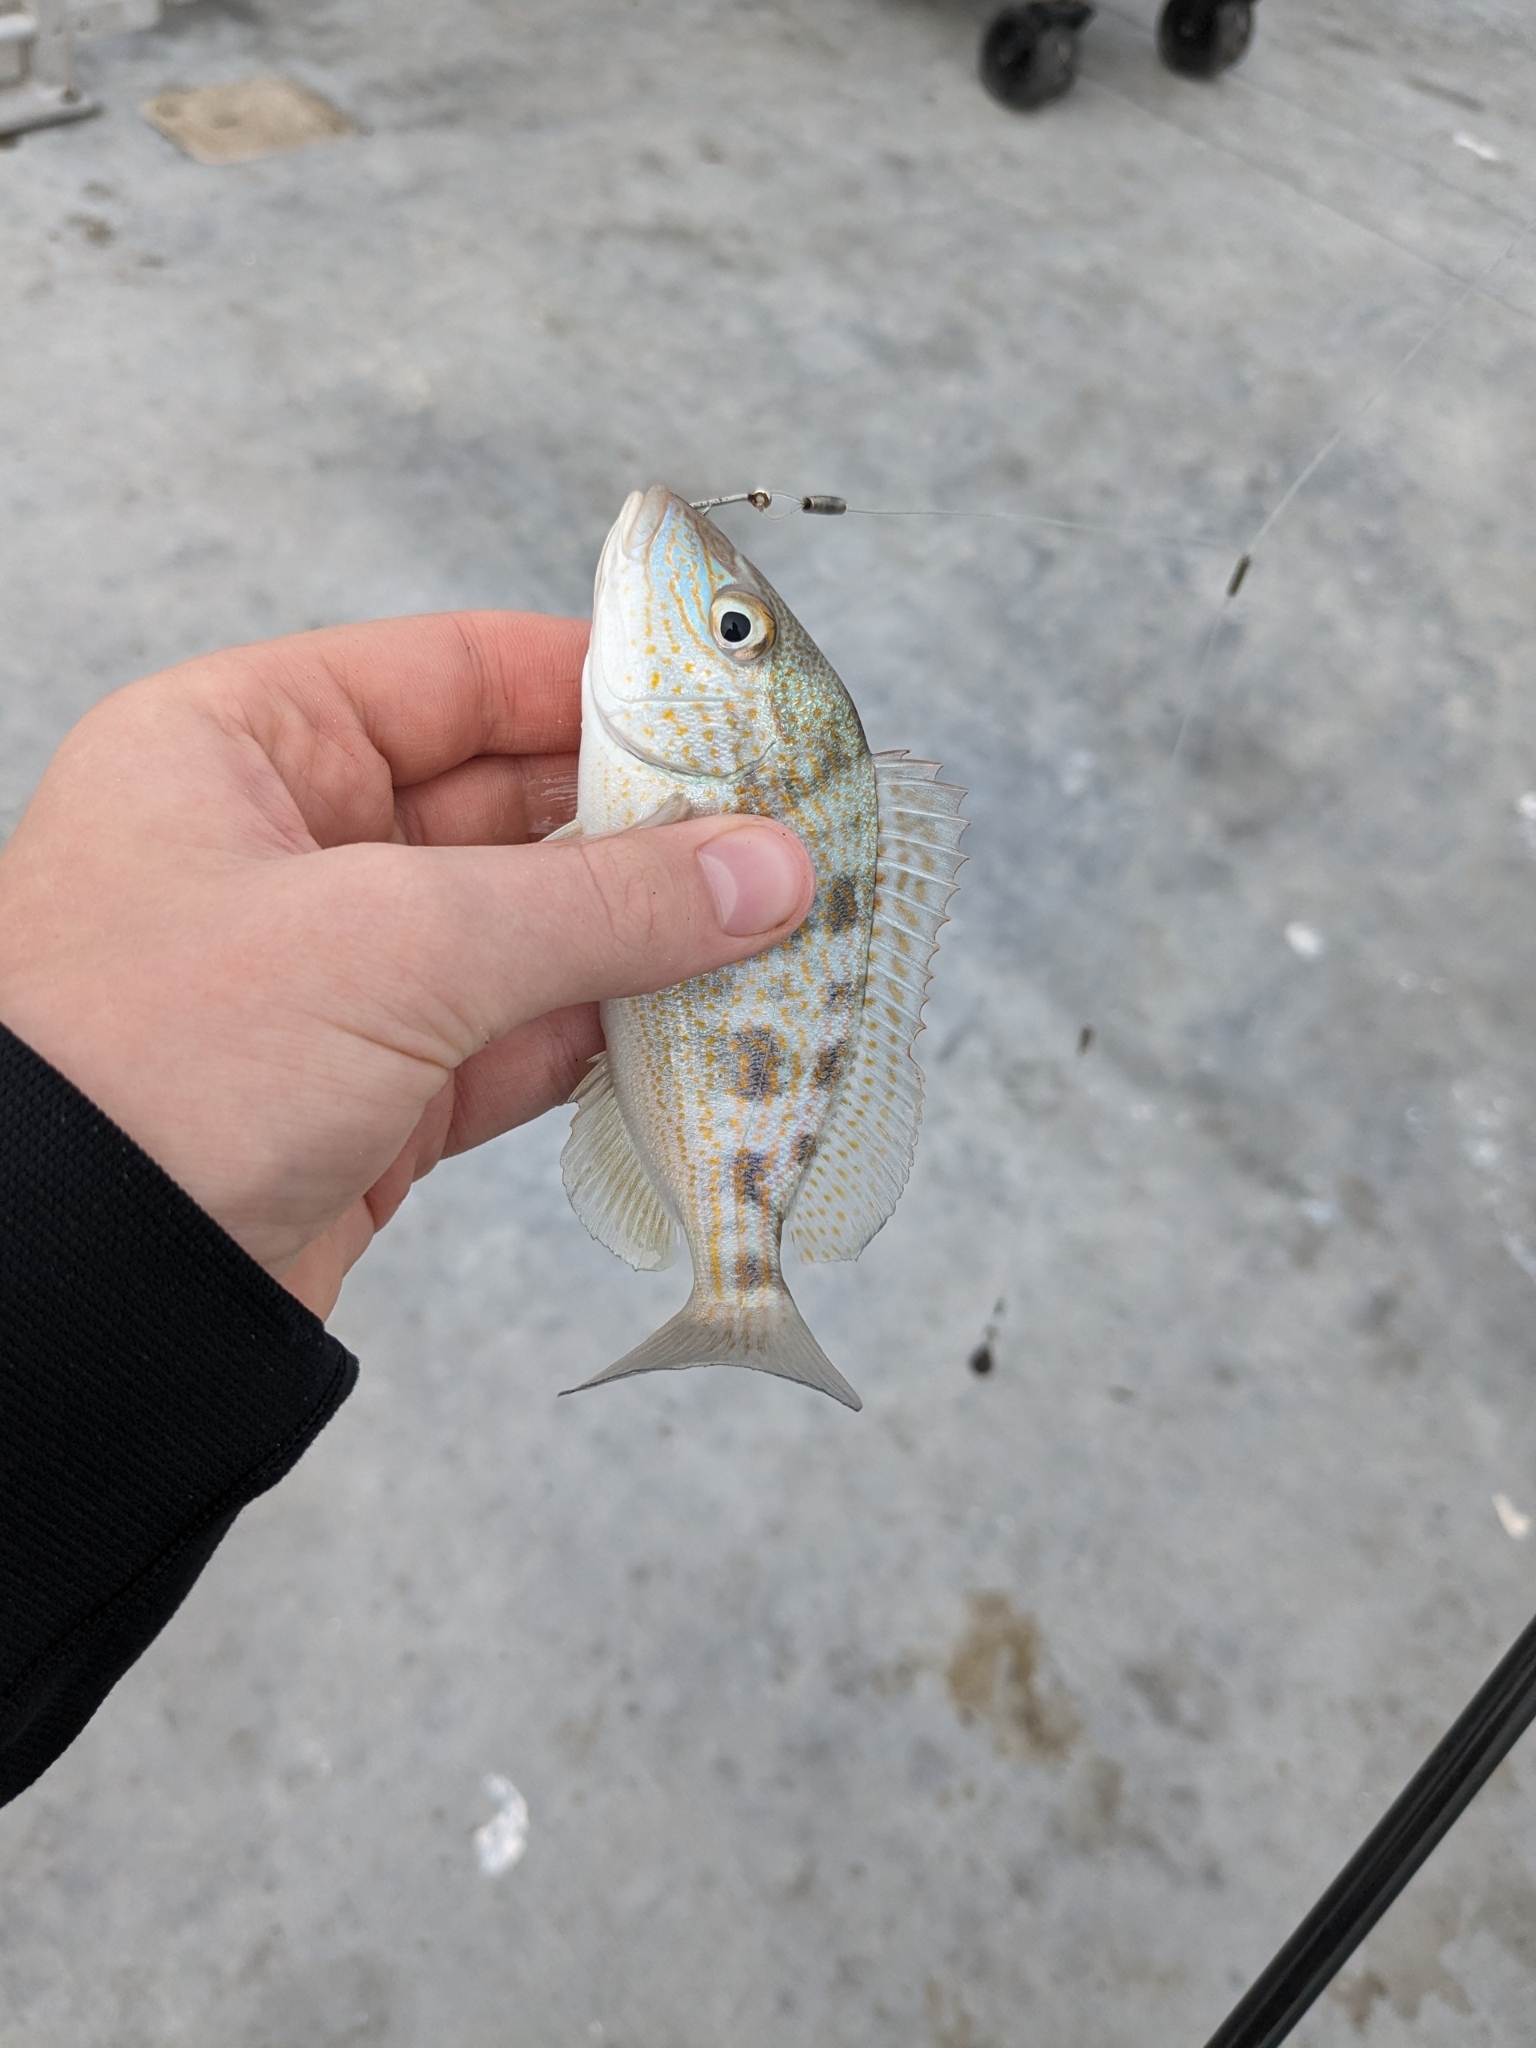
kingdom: Animalia
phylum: Chordata
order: Perciformes
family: Haemulidae
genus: Orthopristis
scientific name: Orthopristis chrysoptera
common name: Pigfish
